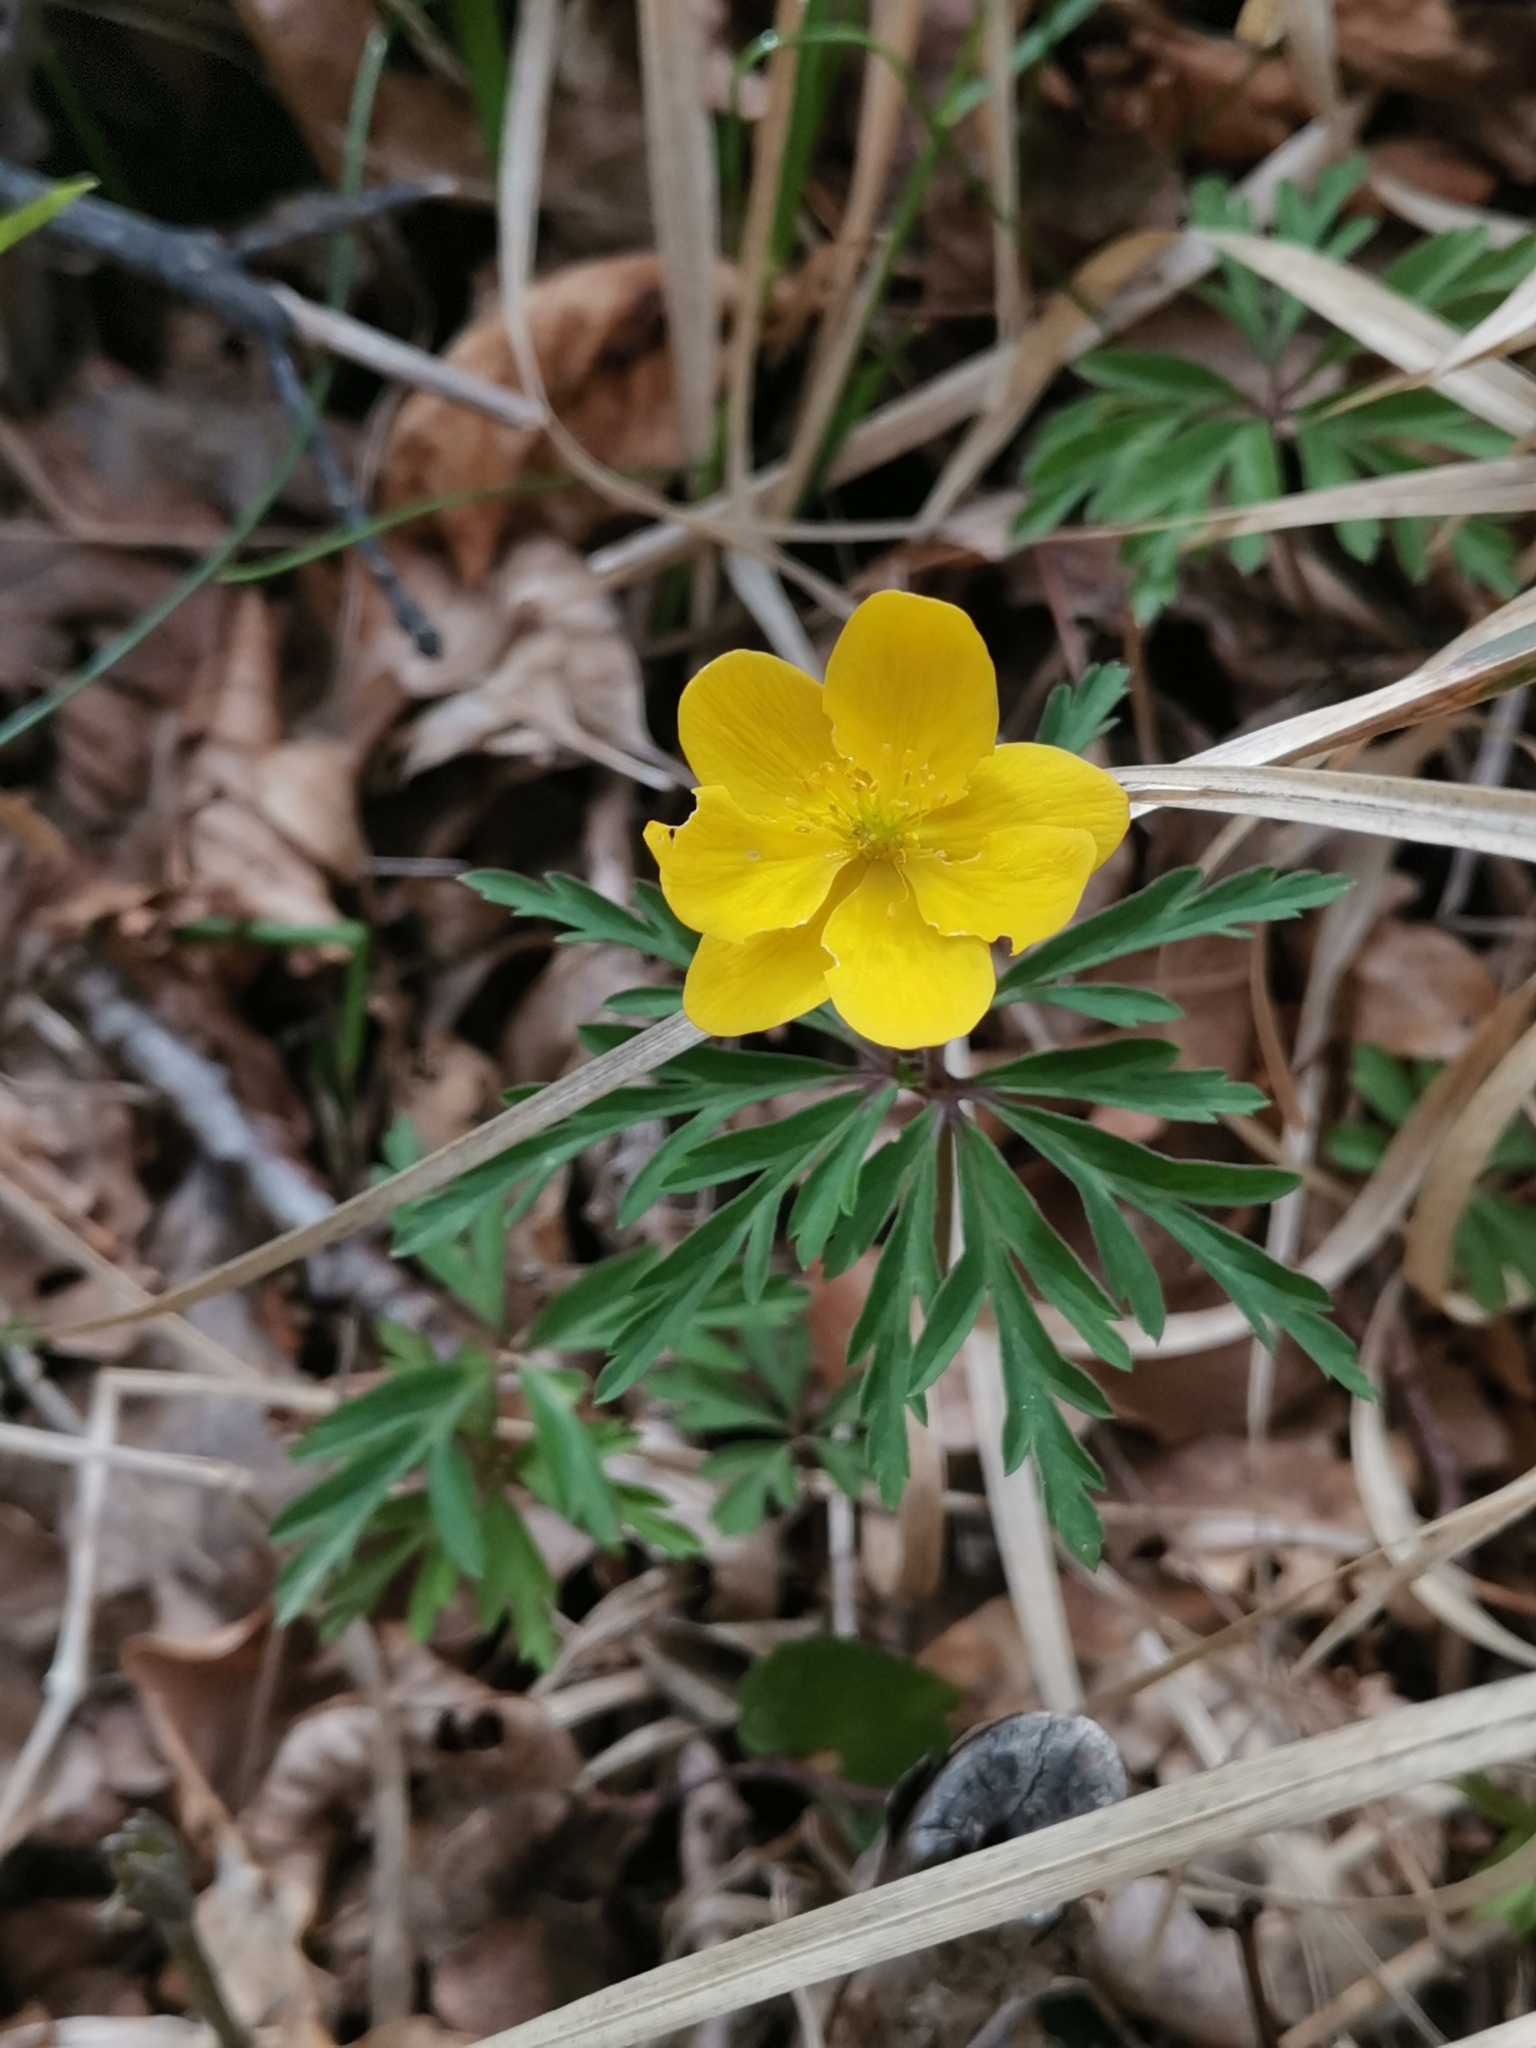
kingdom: Plantae
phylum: Tracheophyta
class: Magnoliopsida
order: Ranunculales
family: Ranunculaceae
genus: Anemone
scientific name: Anemone ranunculoides
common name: Yellow anemone
